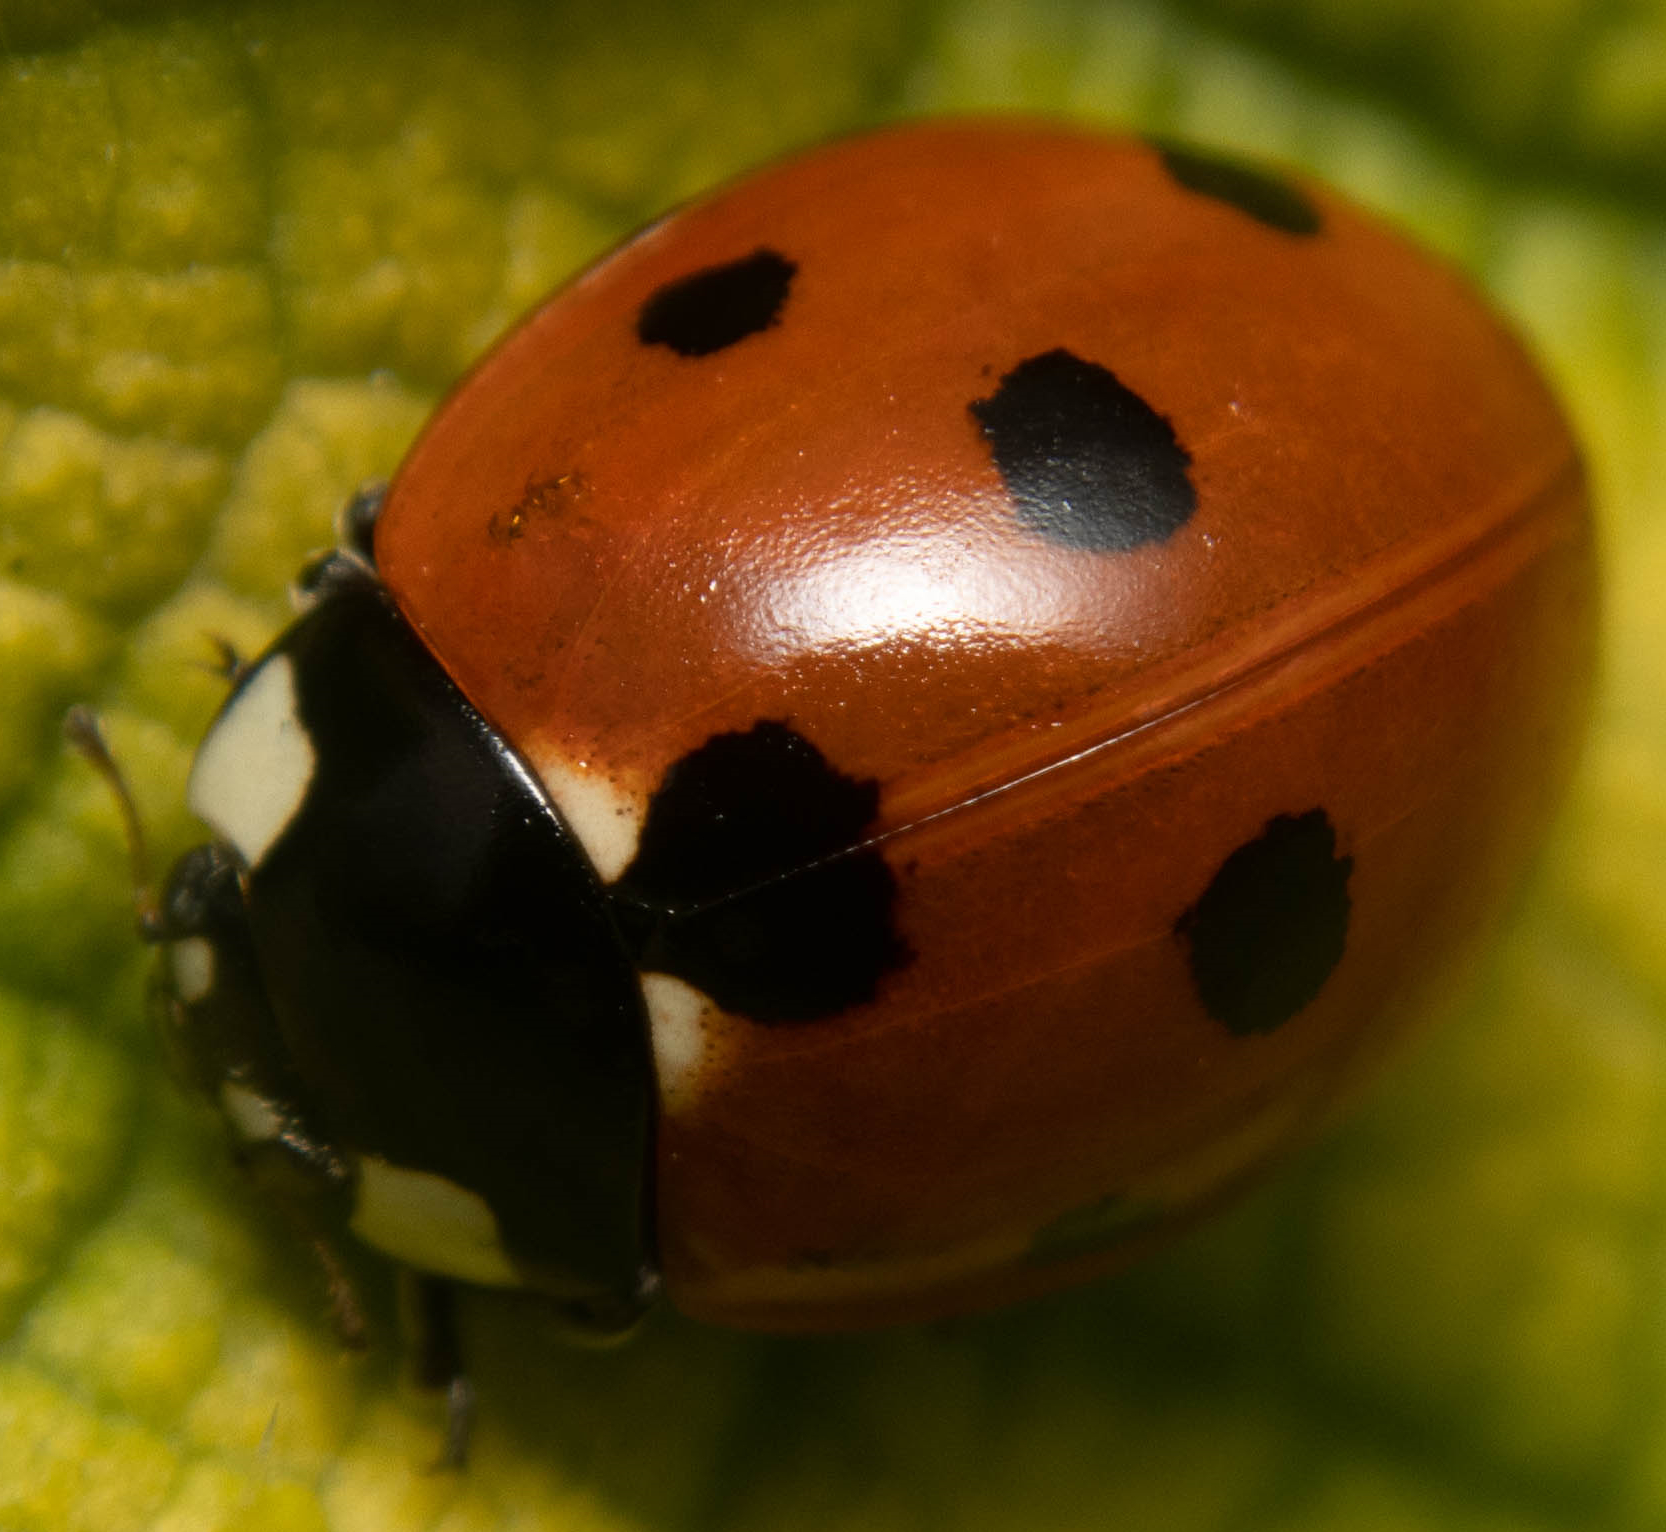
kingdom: Animalia
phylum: Arthropoda
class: Insecta
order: Coleoptera
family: Coccinellidae
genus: Coccinella
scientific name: Coccinella septempunctata
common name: Sevenspotted lady beetle
